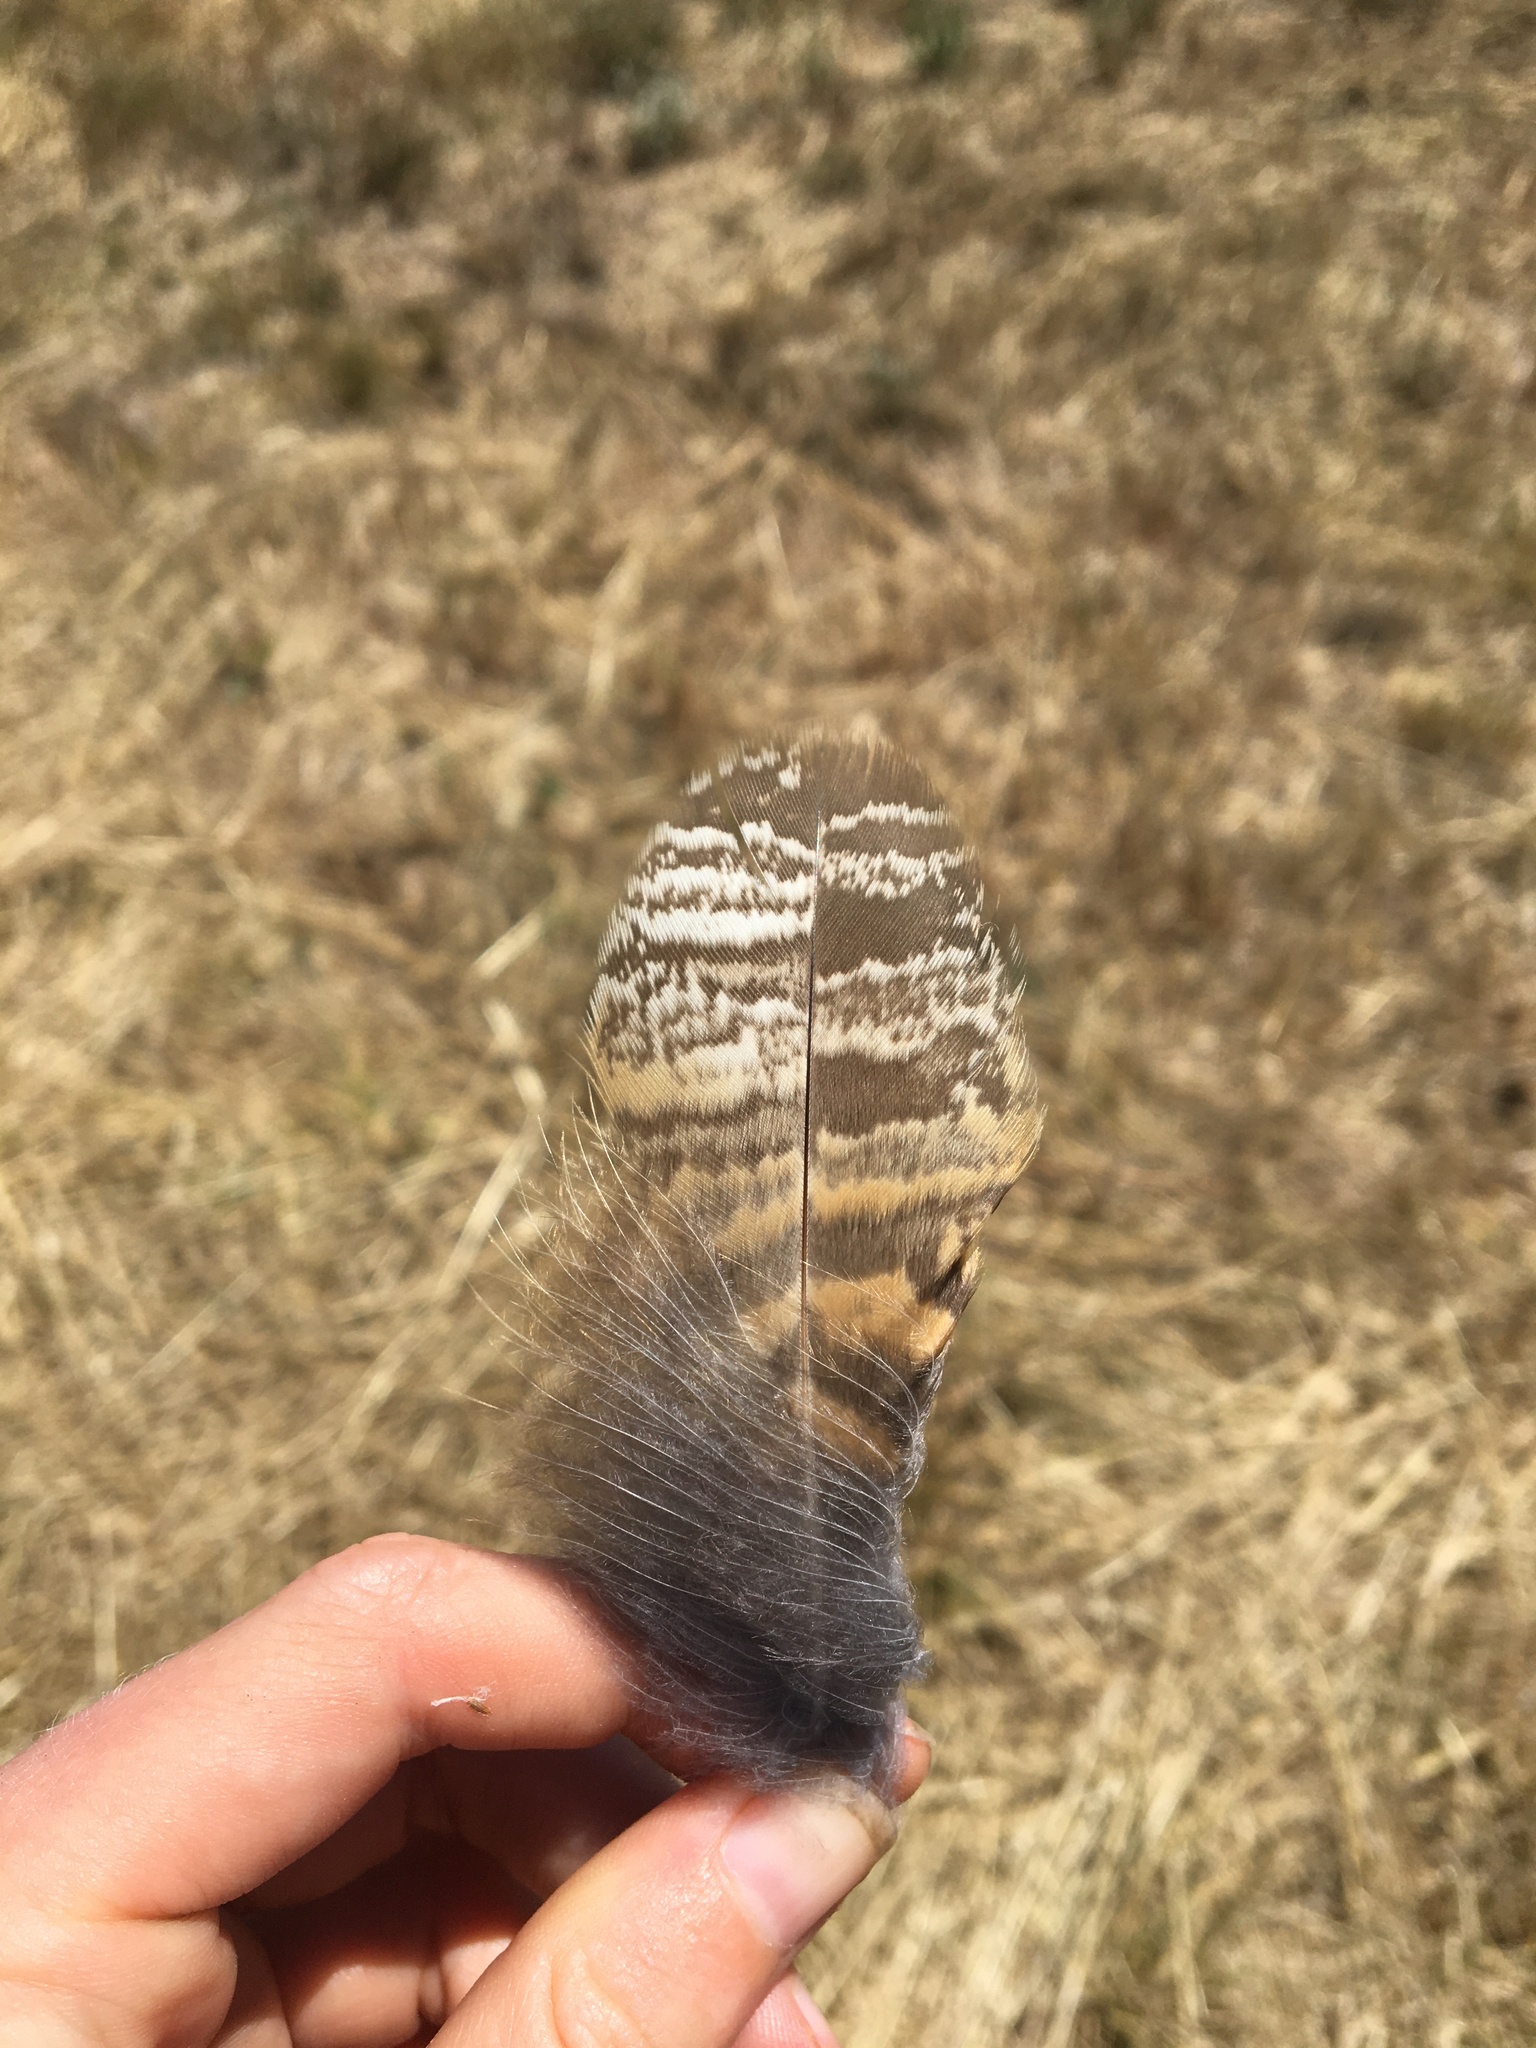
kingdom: Animalia
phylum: Chordata
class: Aves
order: Strigiformes
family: Strigidae
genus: Bubo
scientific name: Bubo virginianus
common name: Great horned owl
